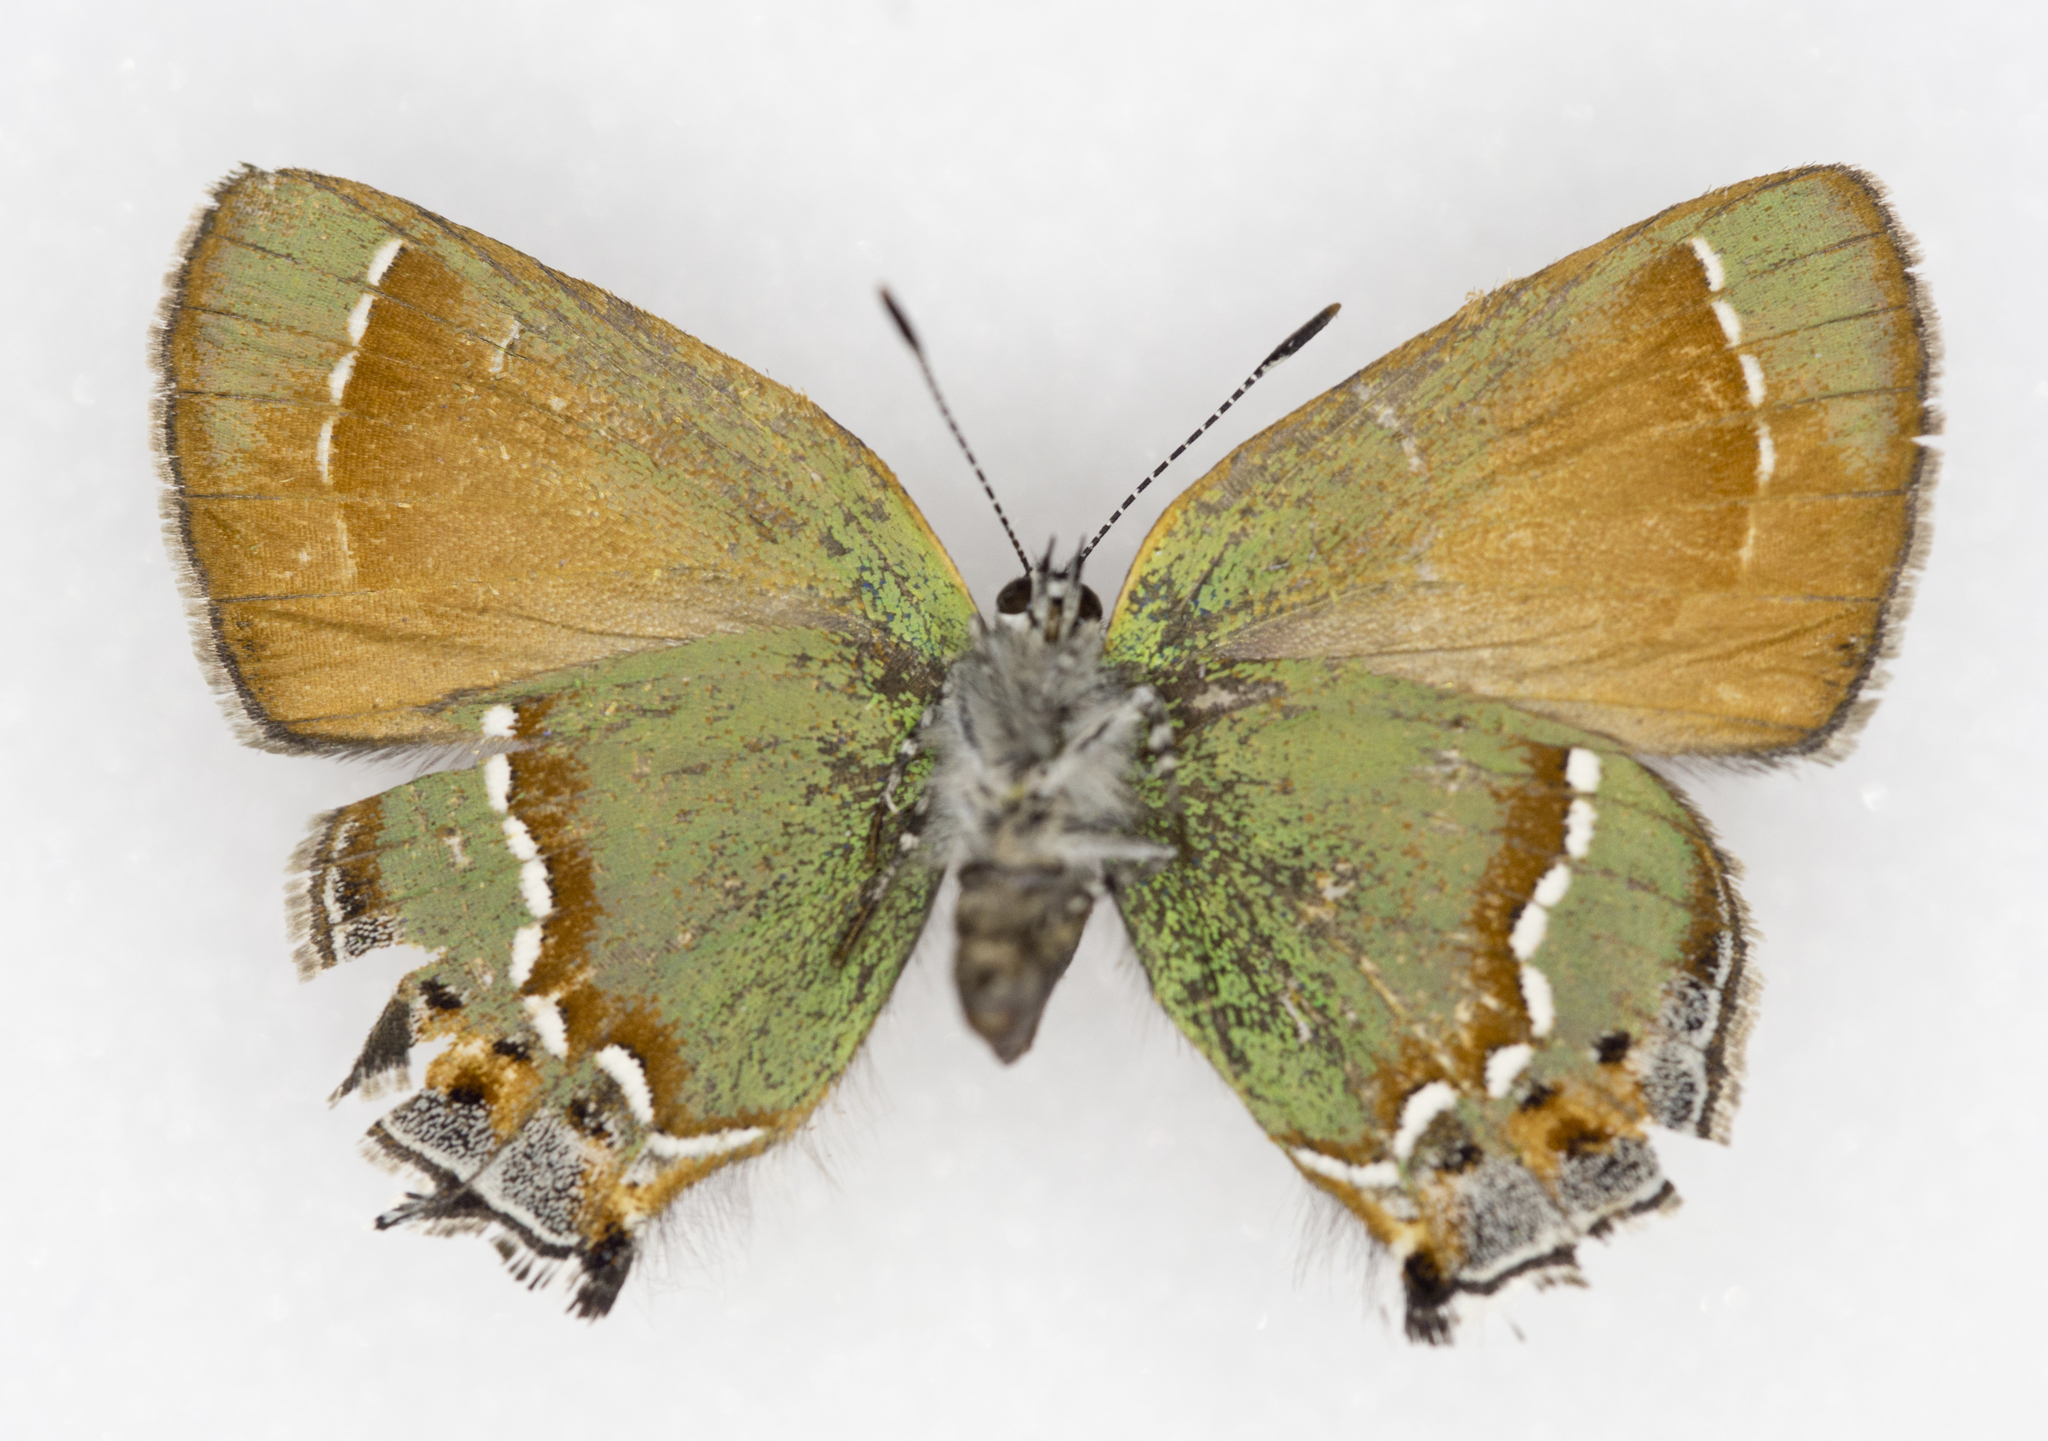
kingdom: Animalia
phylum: Arthropoda
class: Insecta
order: Lepidoptera
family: Lycaenidae
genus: Mitoura
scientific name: Mitoura siva
